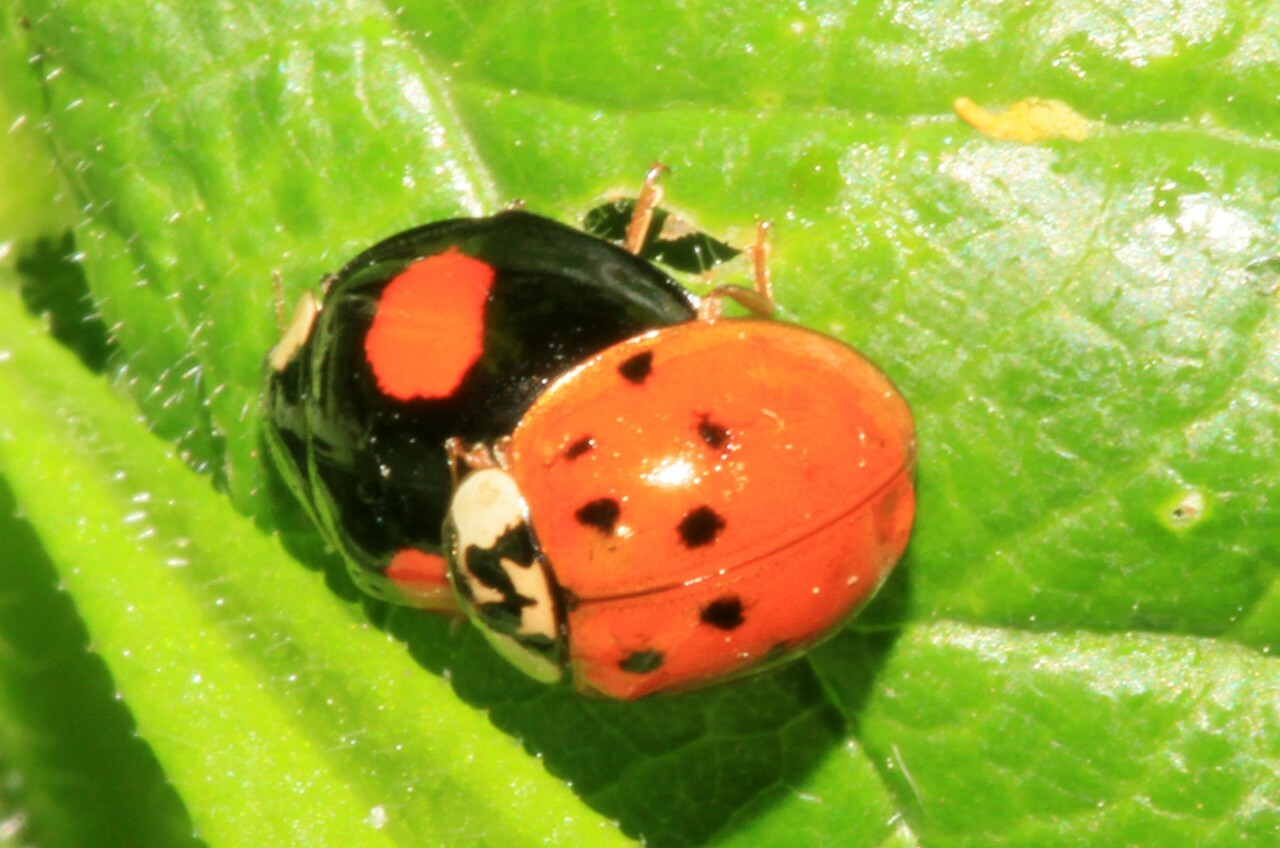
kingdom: Animalia
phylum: Arthropoda
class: Insecta
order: Coleoptera
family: Coccinellidae
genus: Harmonia
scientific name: Harmonia axyridis
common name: Harlequin ladybird
